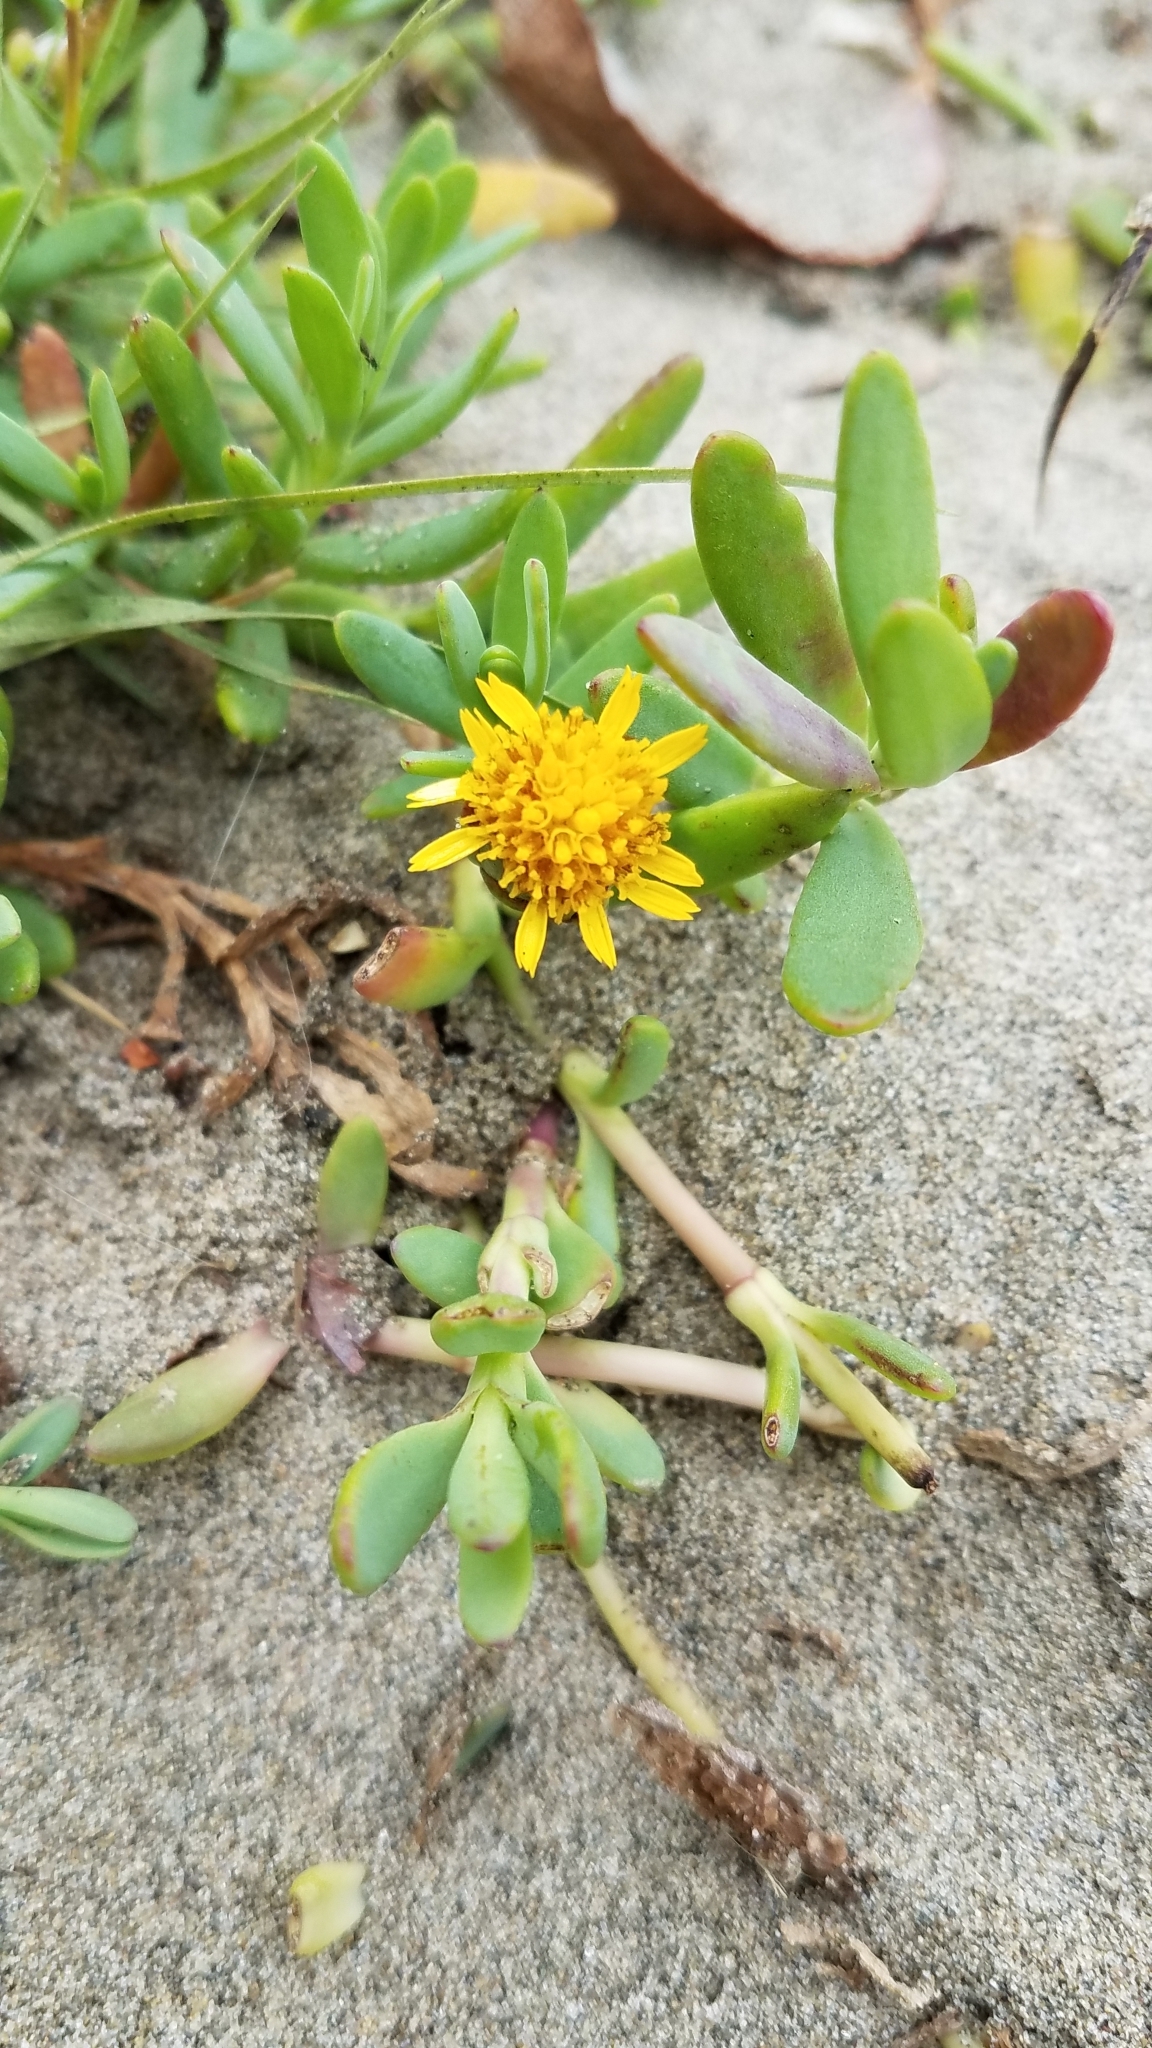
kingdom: Plantae
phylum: Tracheophyta
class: Magnoliopsida
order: Asterales
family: Asteraceae
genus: Jaumea
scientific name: Jaumea carnosa
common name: Fleshy jaumea
